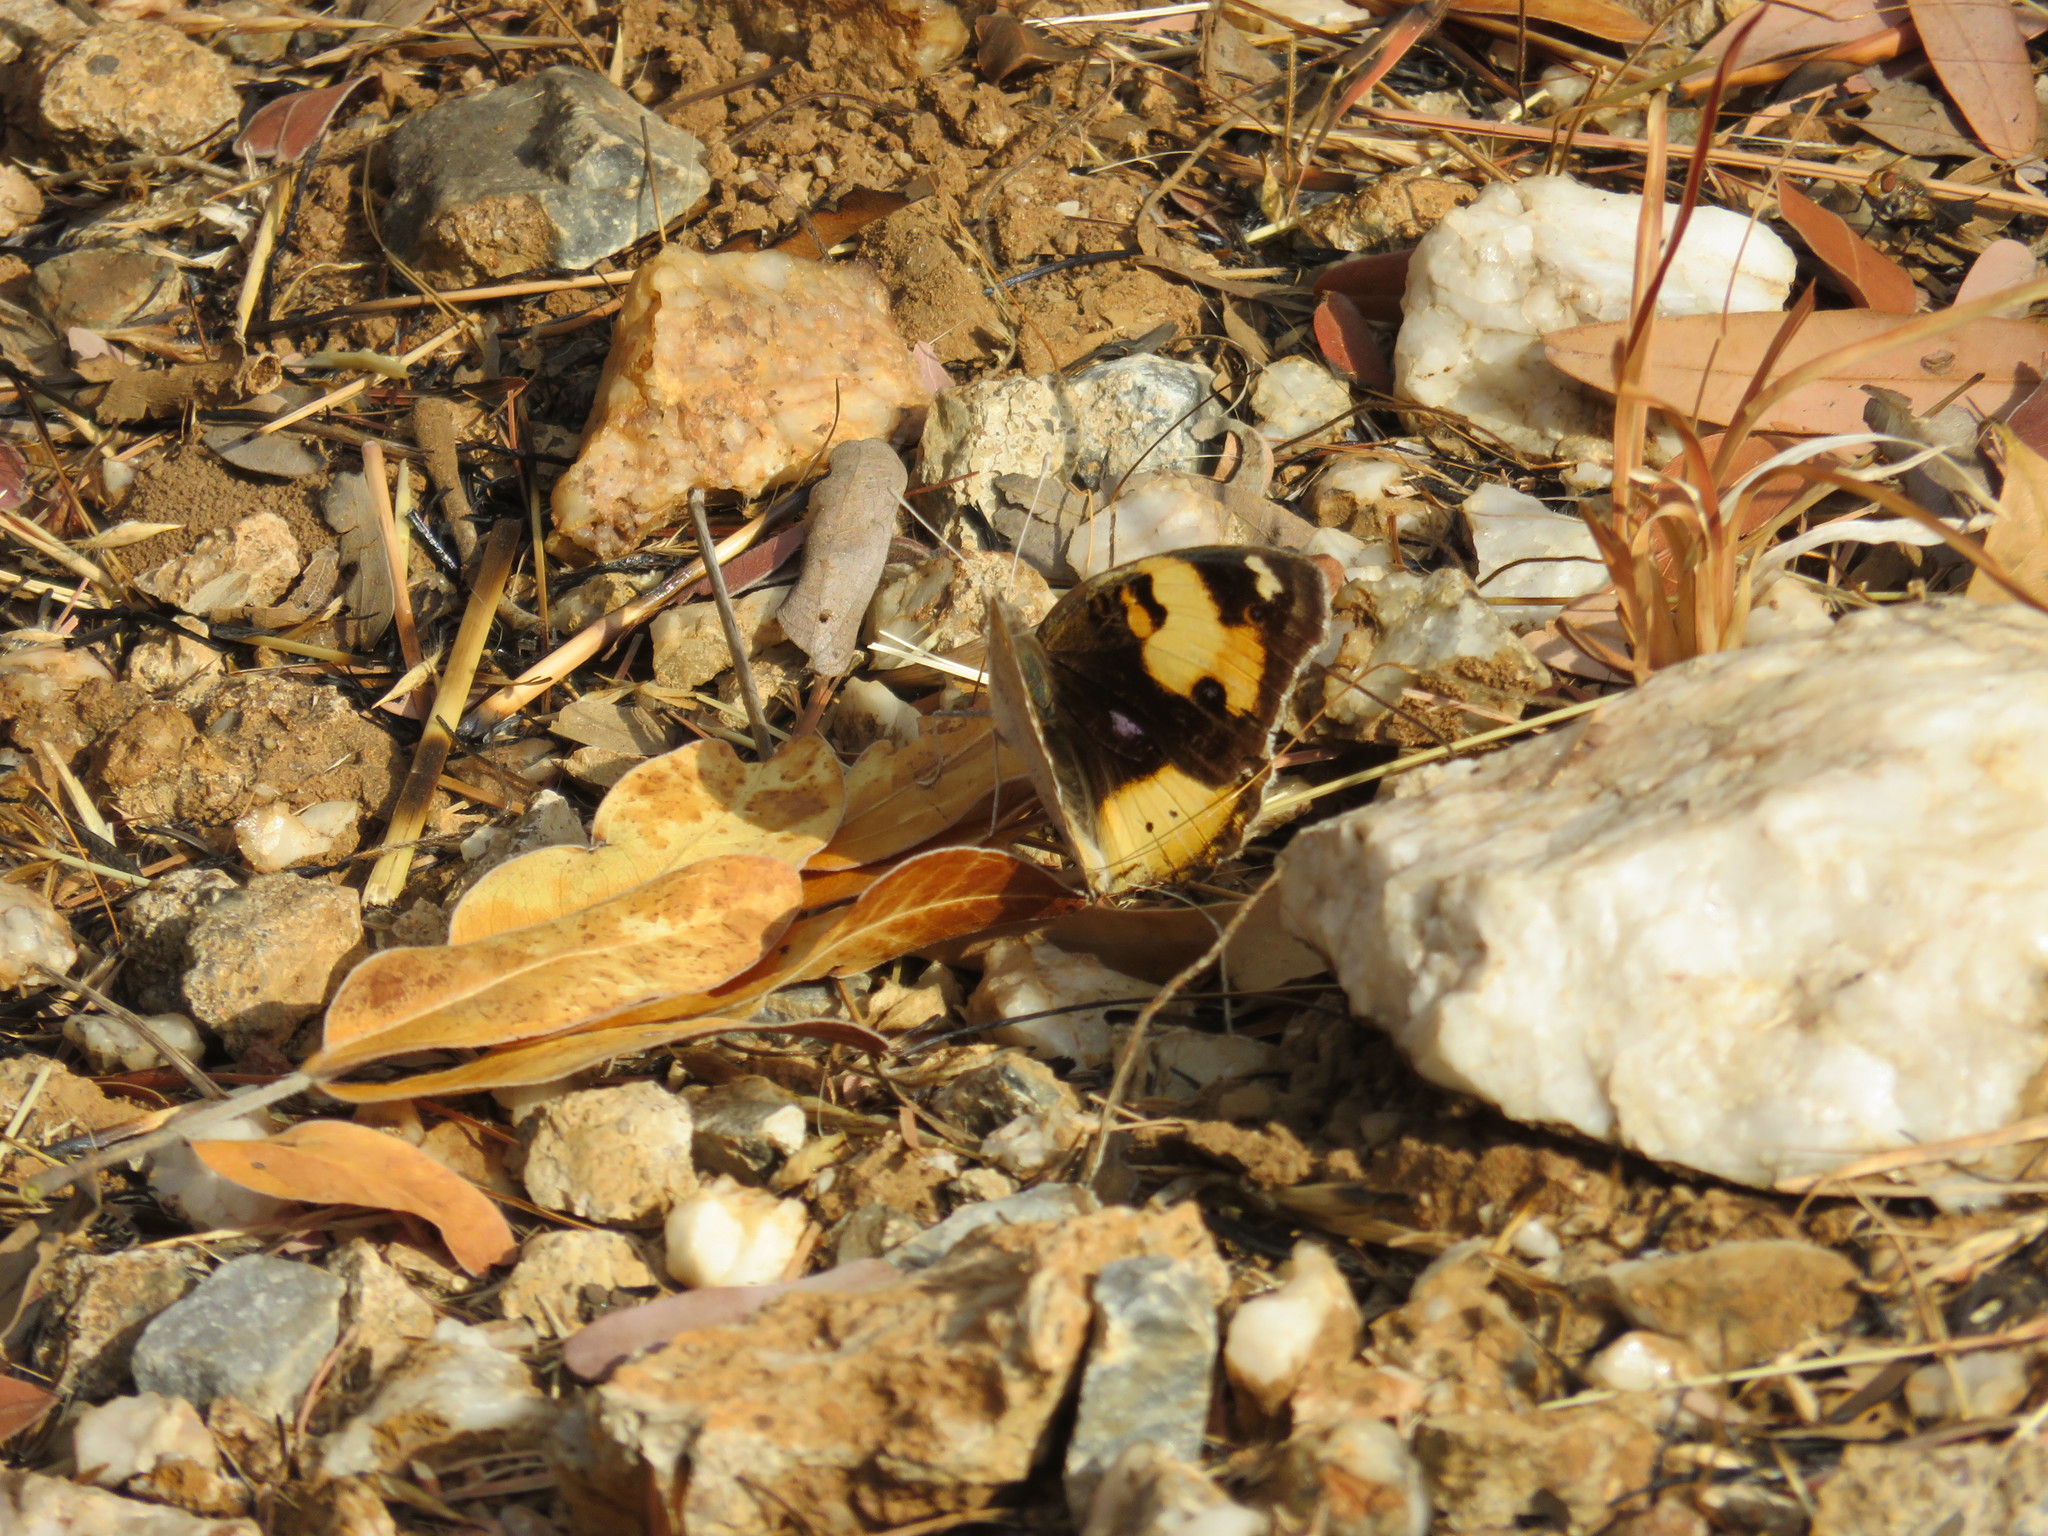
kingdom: Animalia
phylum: Arthropoda
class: Insecta
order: Lepidoptera
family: Nymphalidae
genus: Junonia
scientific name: Junonia hierta
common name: Yellow pansy
